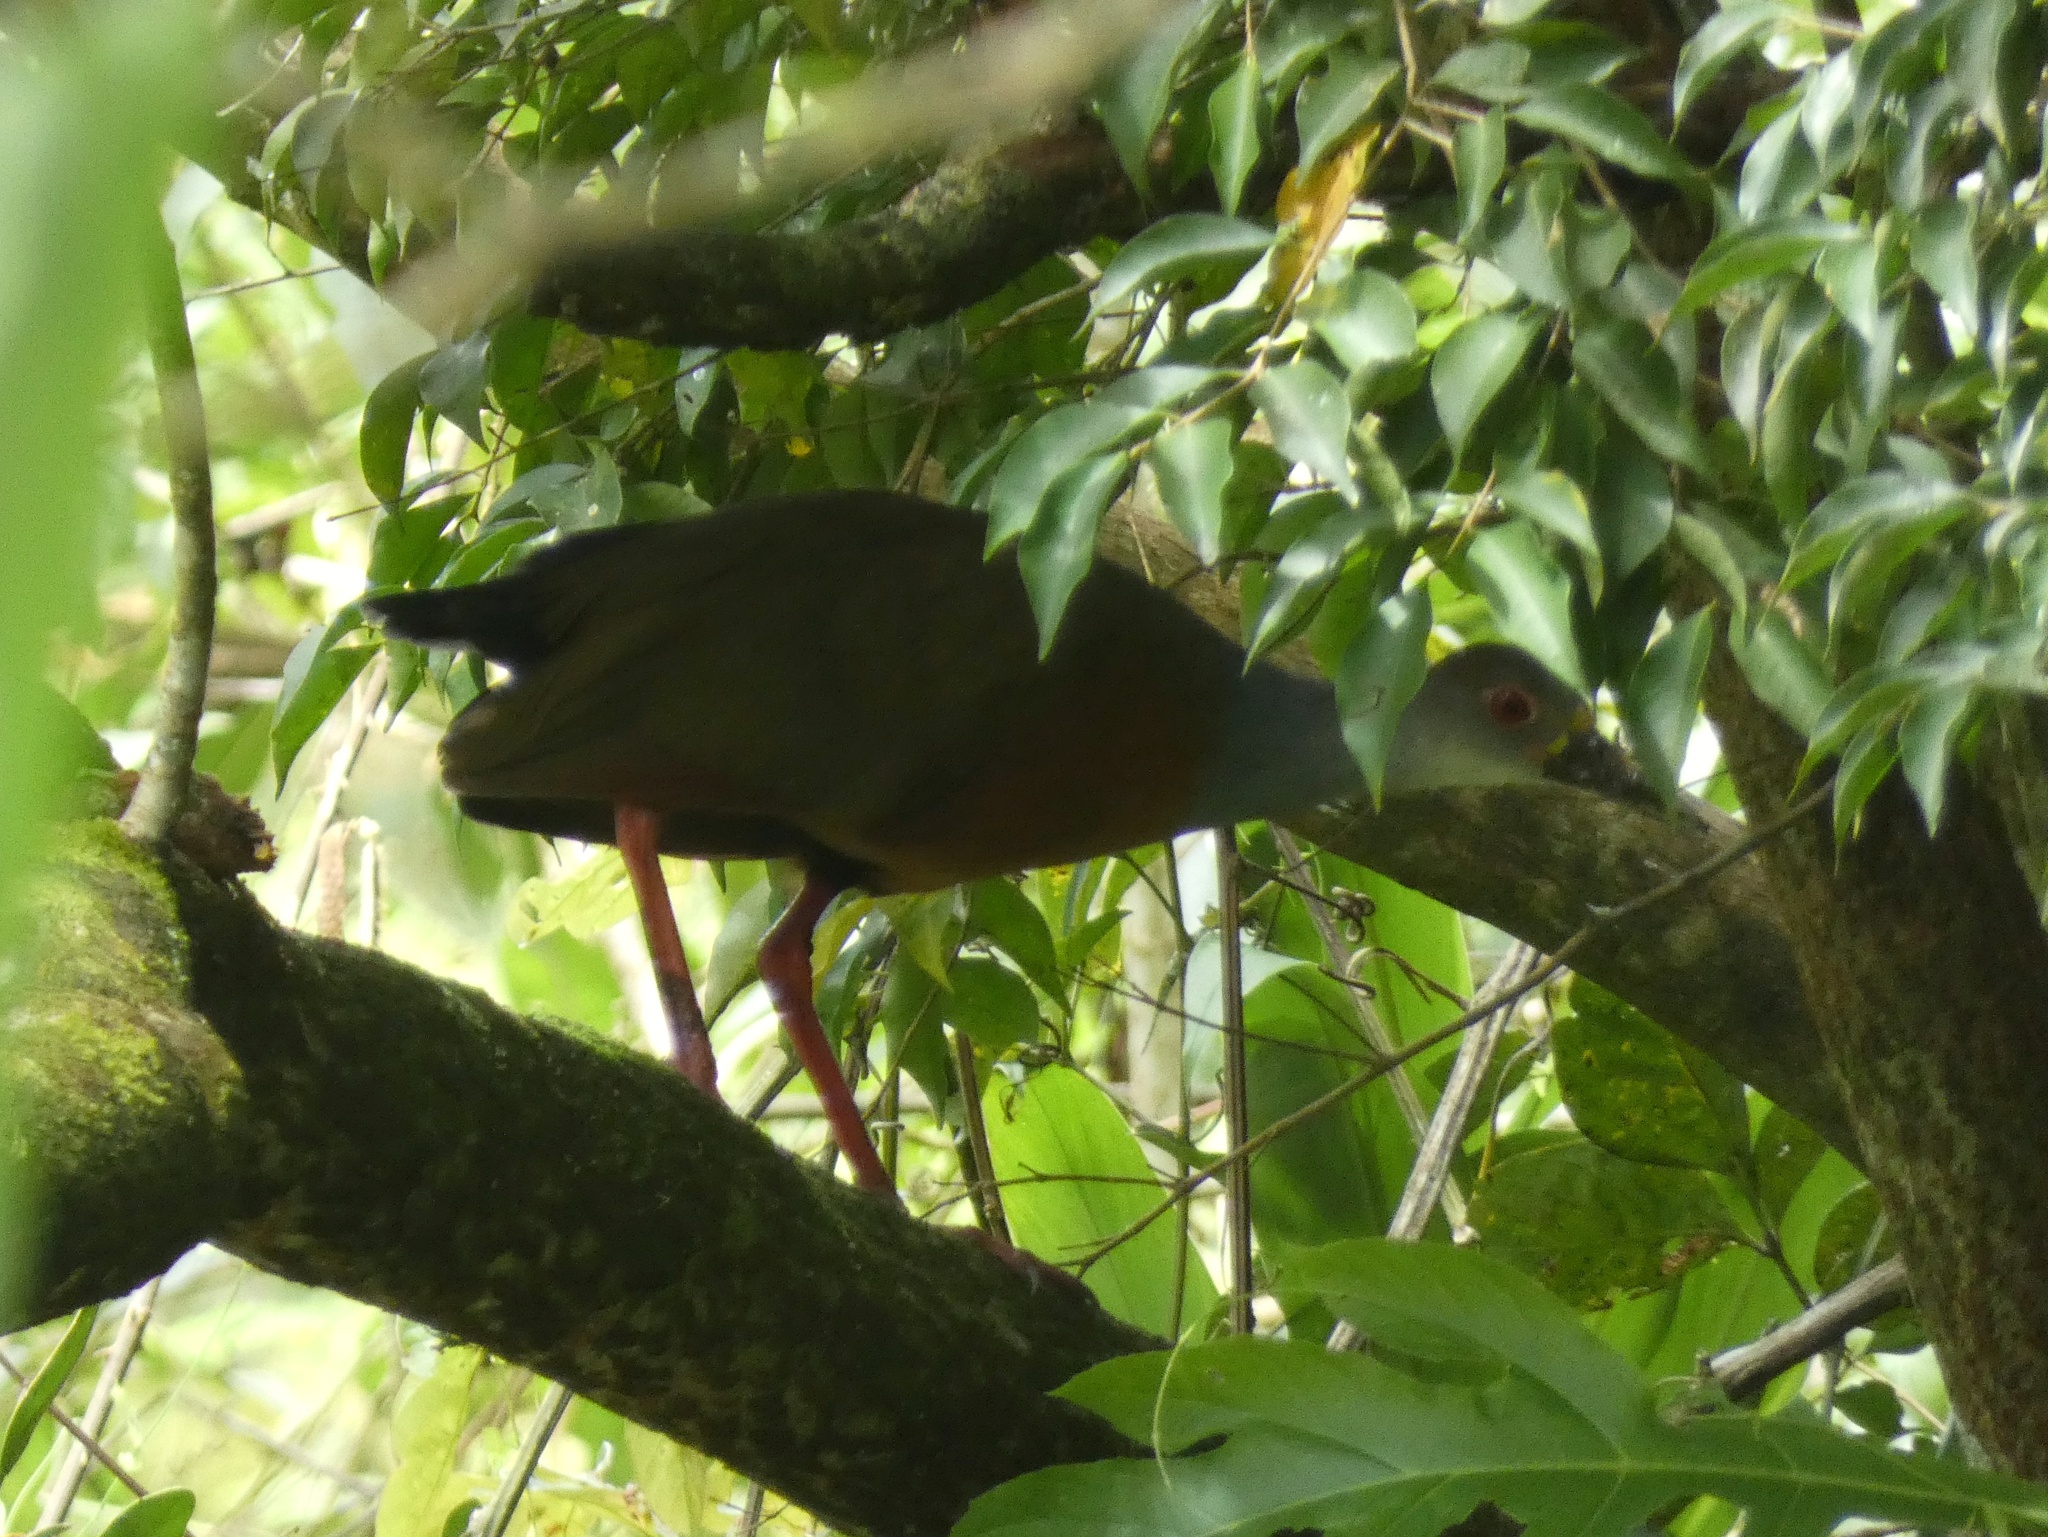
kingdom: Animalia
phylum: Chordata
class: Aves
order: Gruiformes
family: Rallidae
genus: Aramides
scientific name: Aramides cajanea
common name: Gray-necked wood-rail
